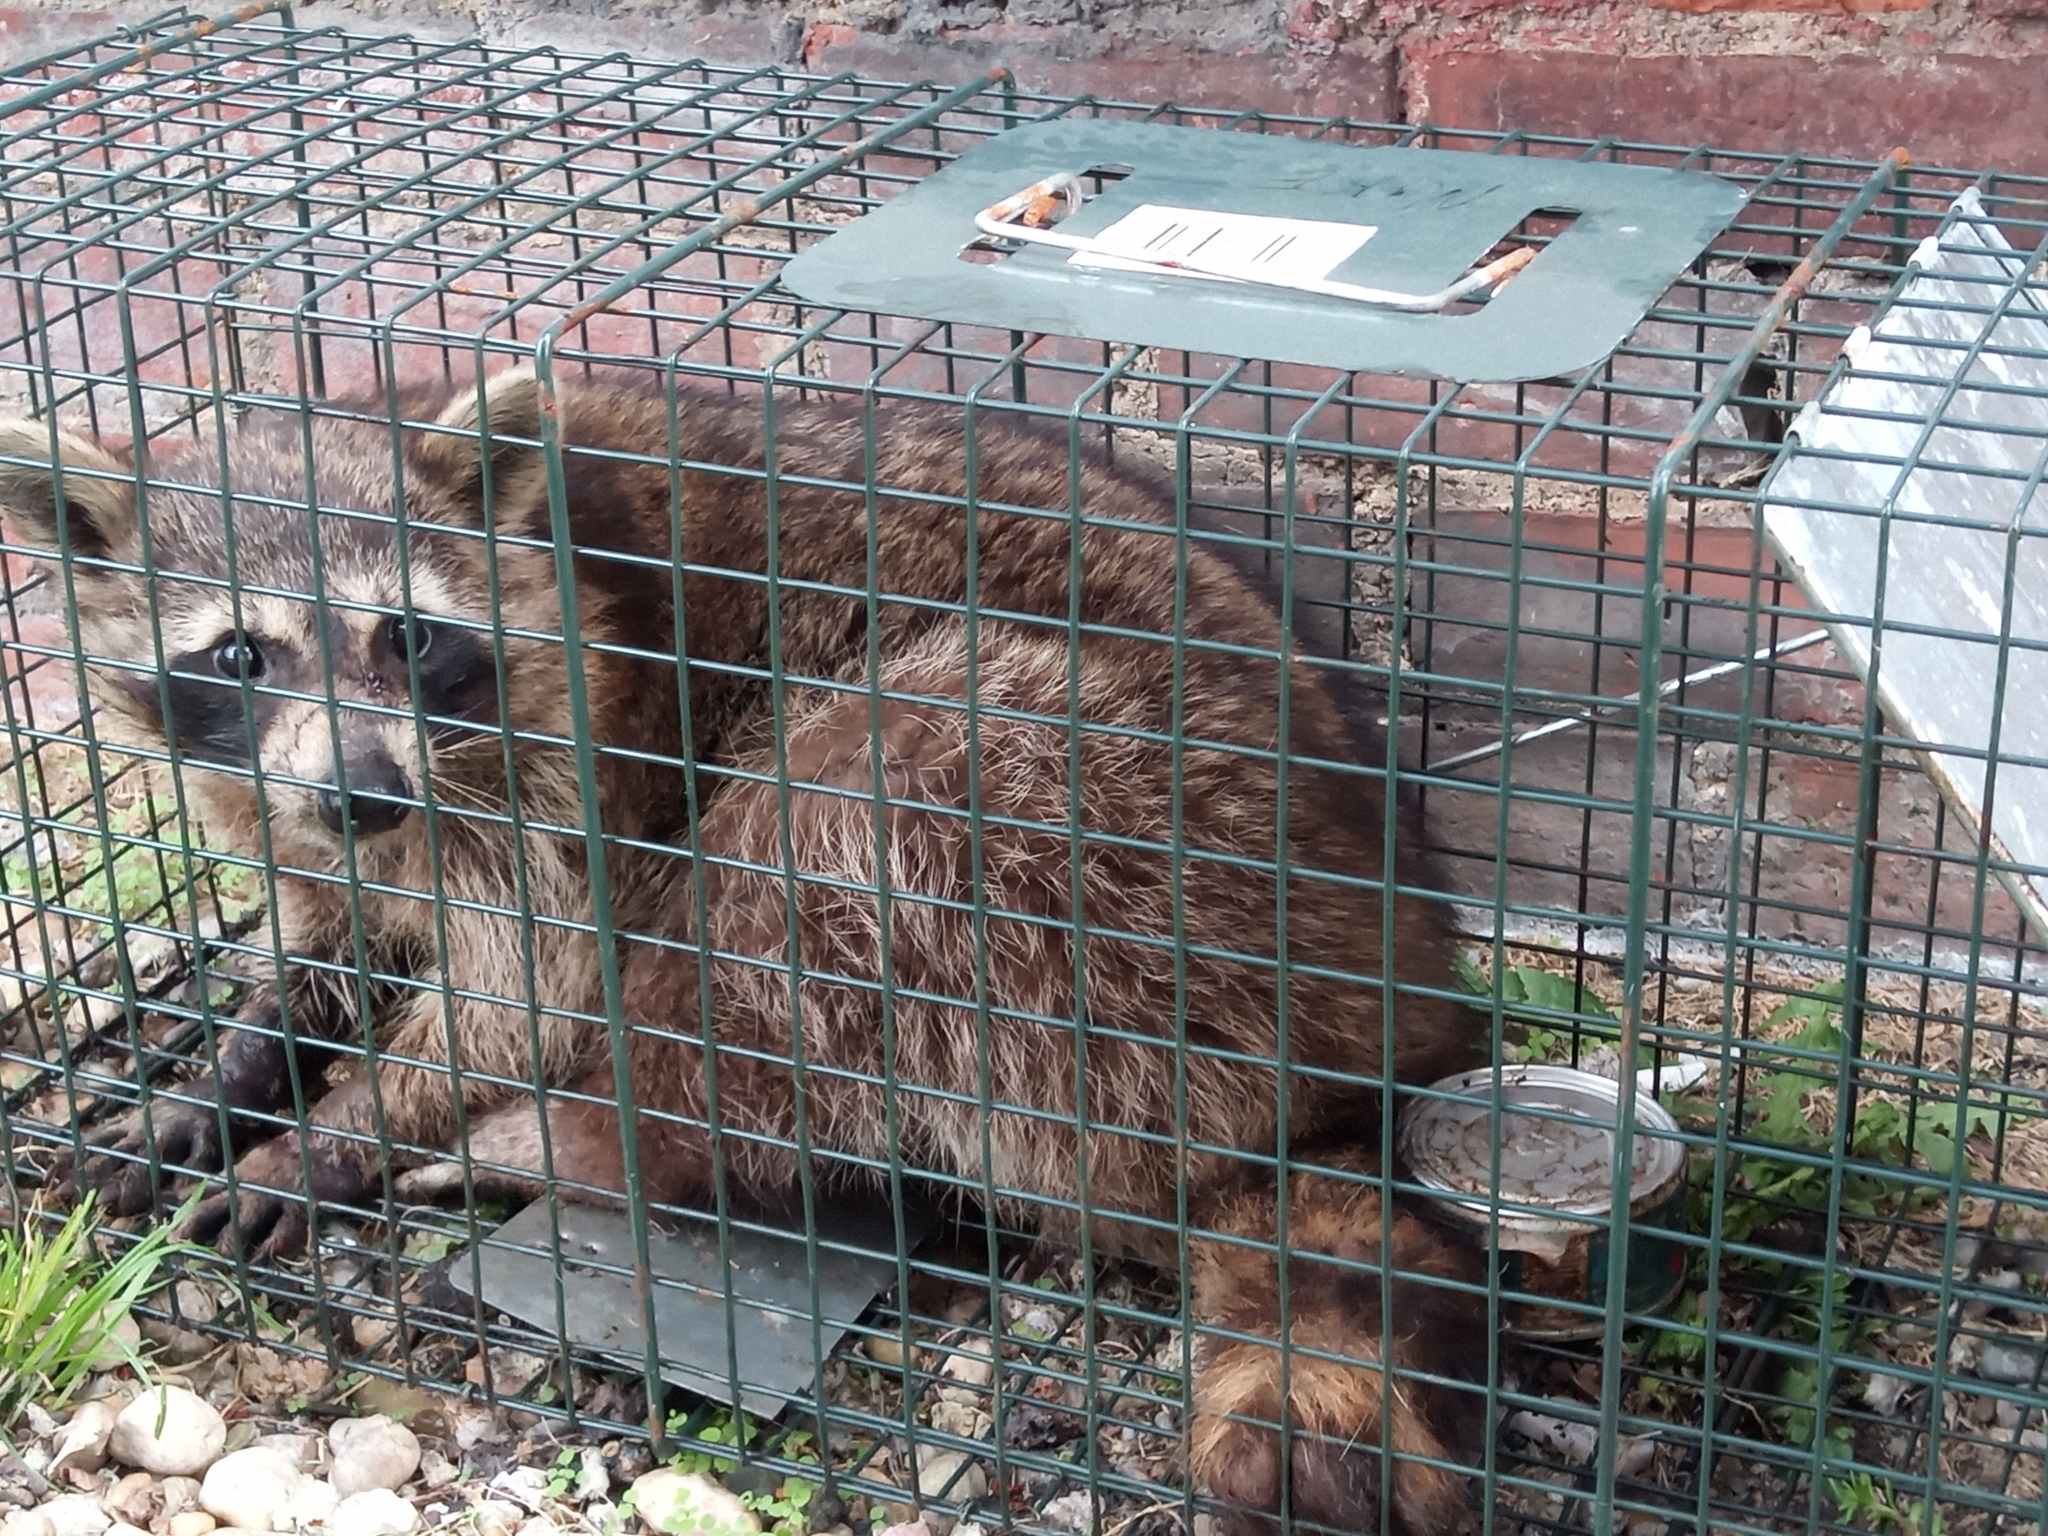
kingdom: Animalia
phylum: Chordata
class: Mammalia
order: Carnivora
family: Procyonidae
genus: Procyon
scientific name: Procyon lotor
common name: Raccoon
